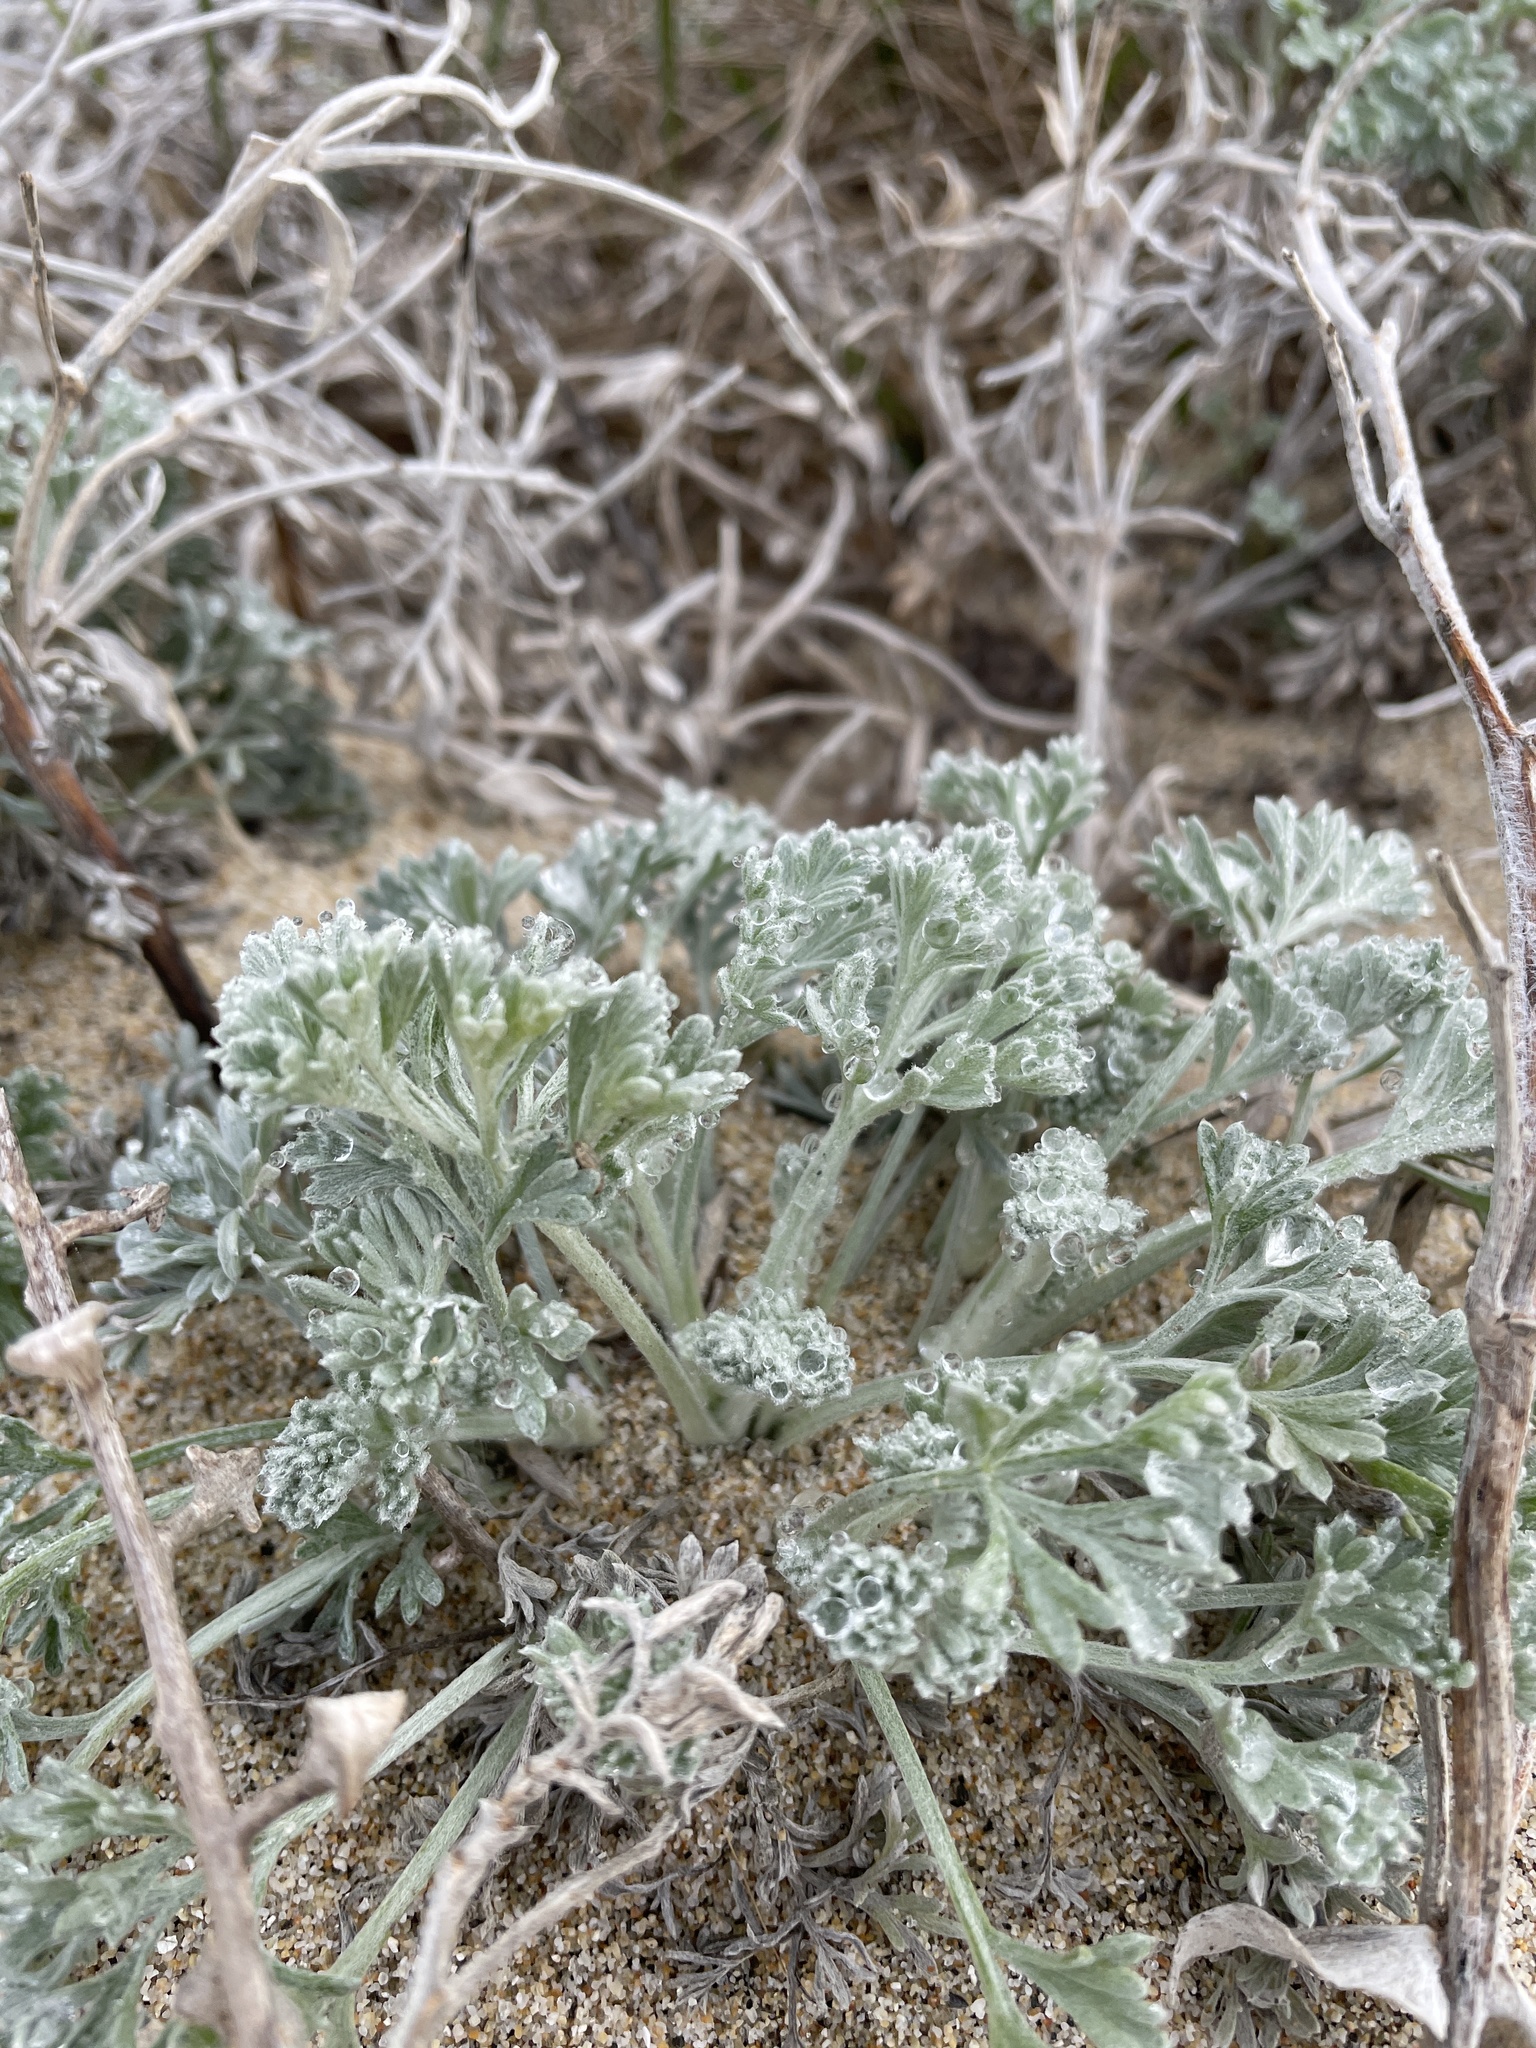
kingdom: Plantae
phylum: Tracheophyta
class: Magnoliopsida
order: Asterales
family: Asteraceae
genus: Artemisia
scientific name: Artemisia pycnocephala
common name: Coastal sagewort
